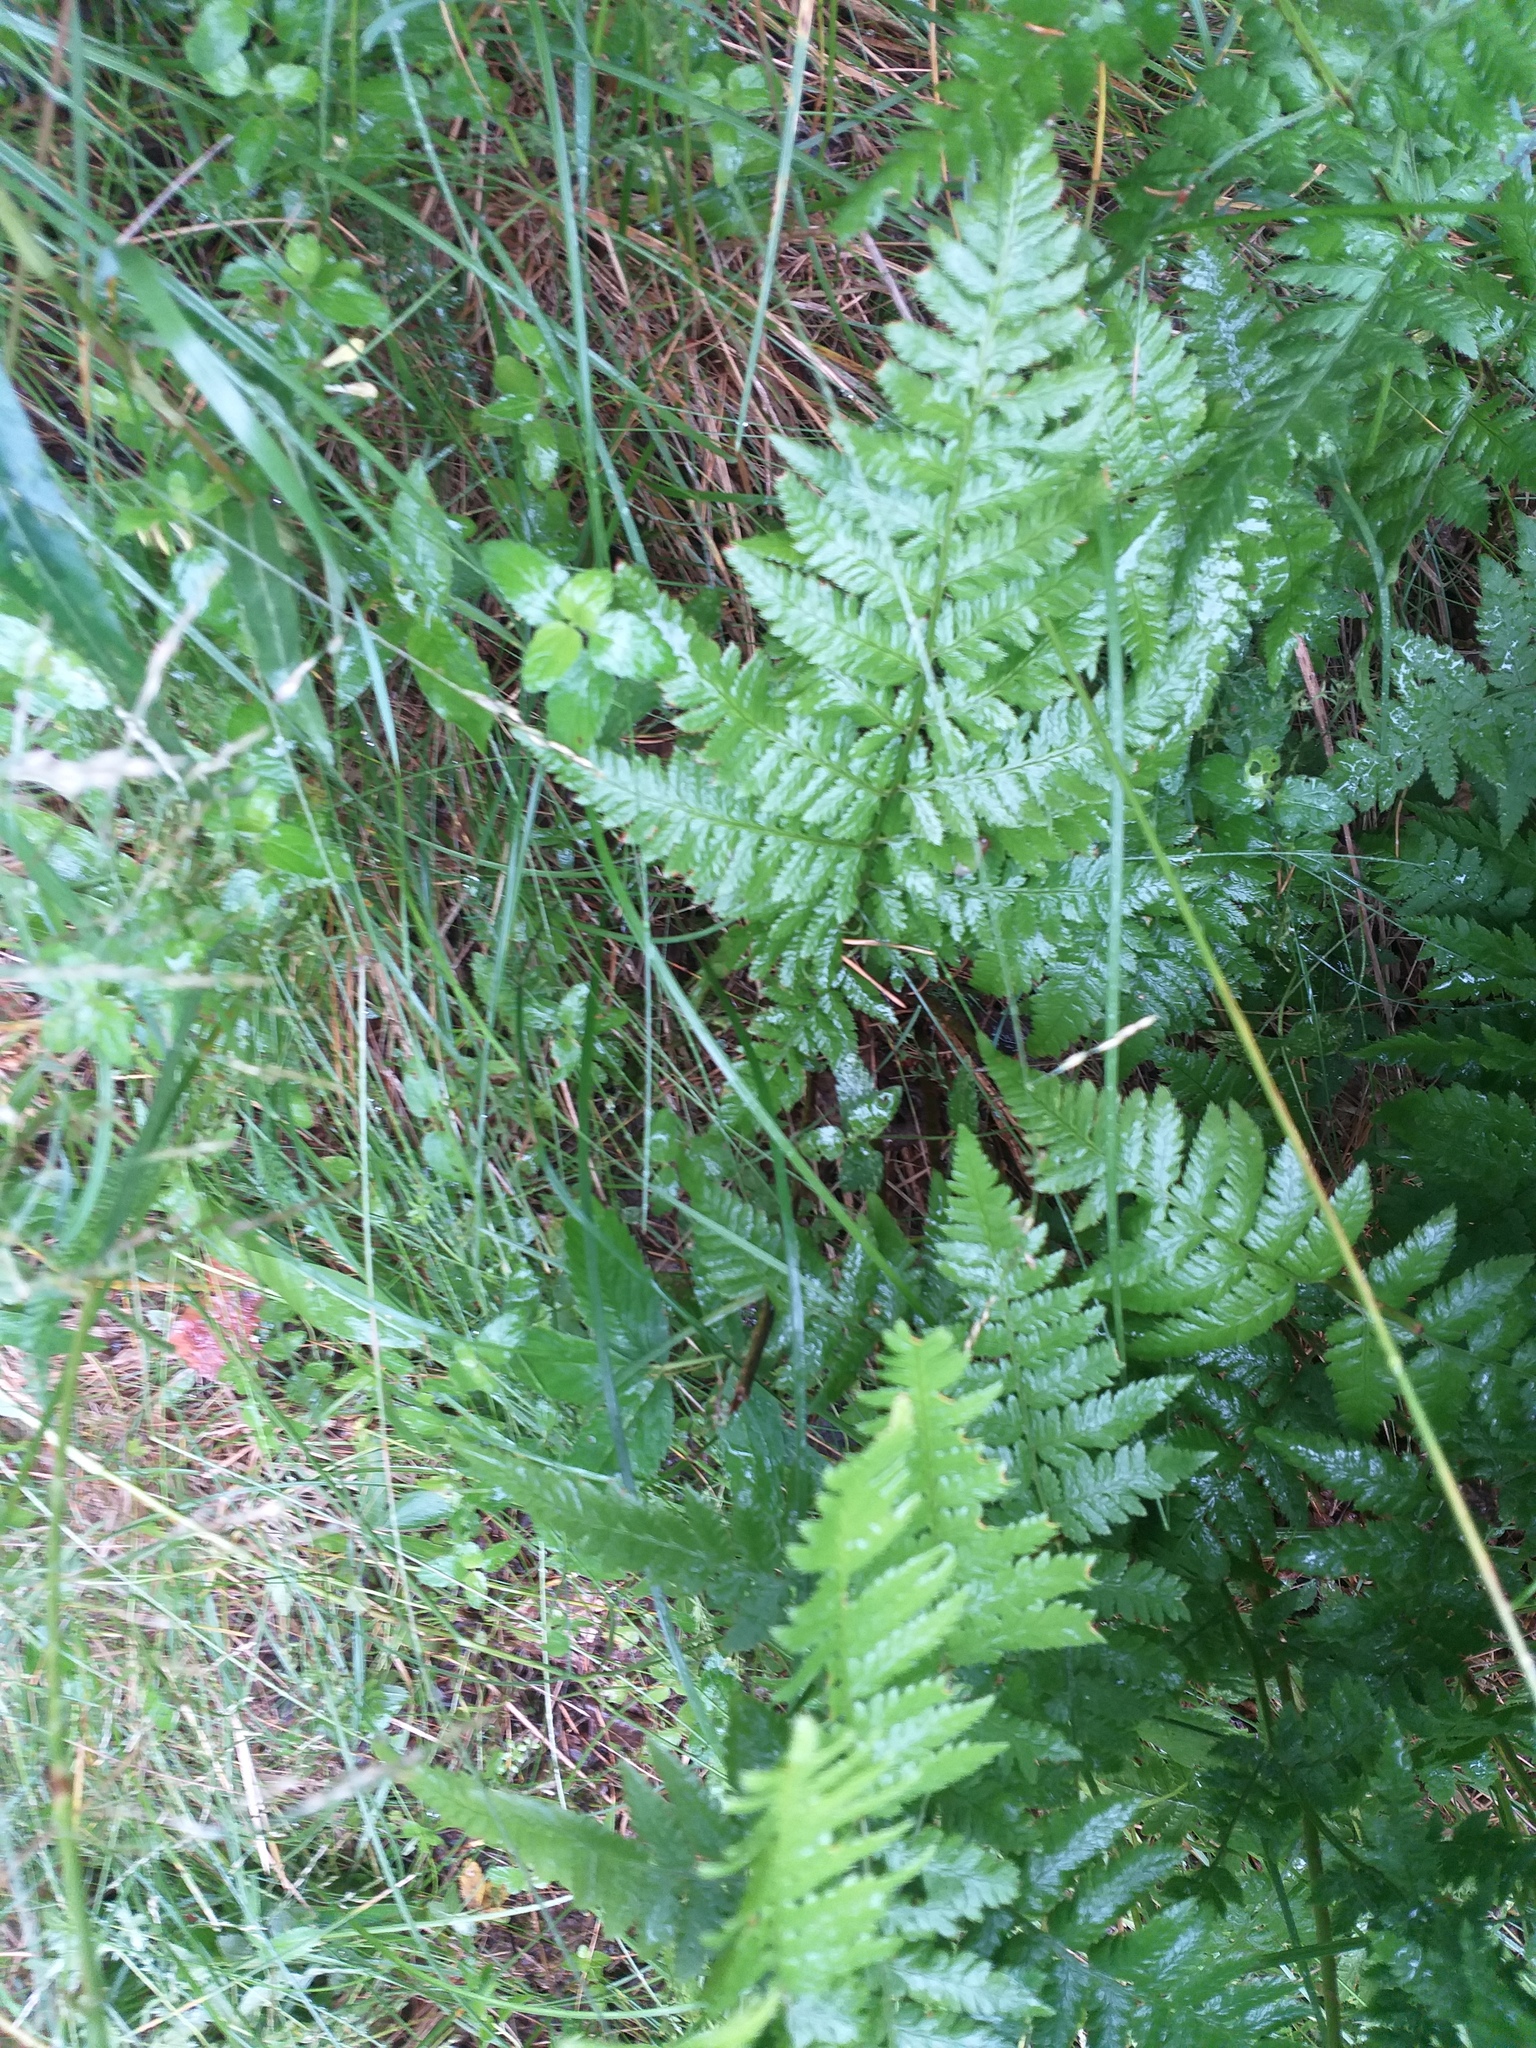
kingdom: Plantae
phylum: Tracheophyta
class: Polypodiopsida
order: Polypodiales
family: Dryopteridaceae
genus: Dryopteris
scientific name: Dryopteris carthusiana
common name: Narrow buckler-fern
